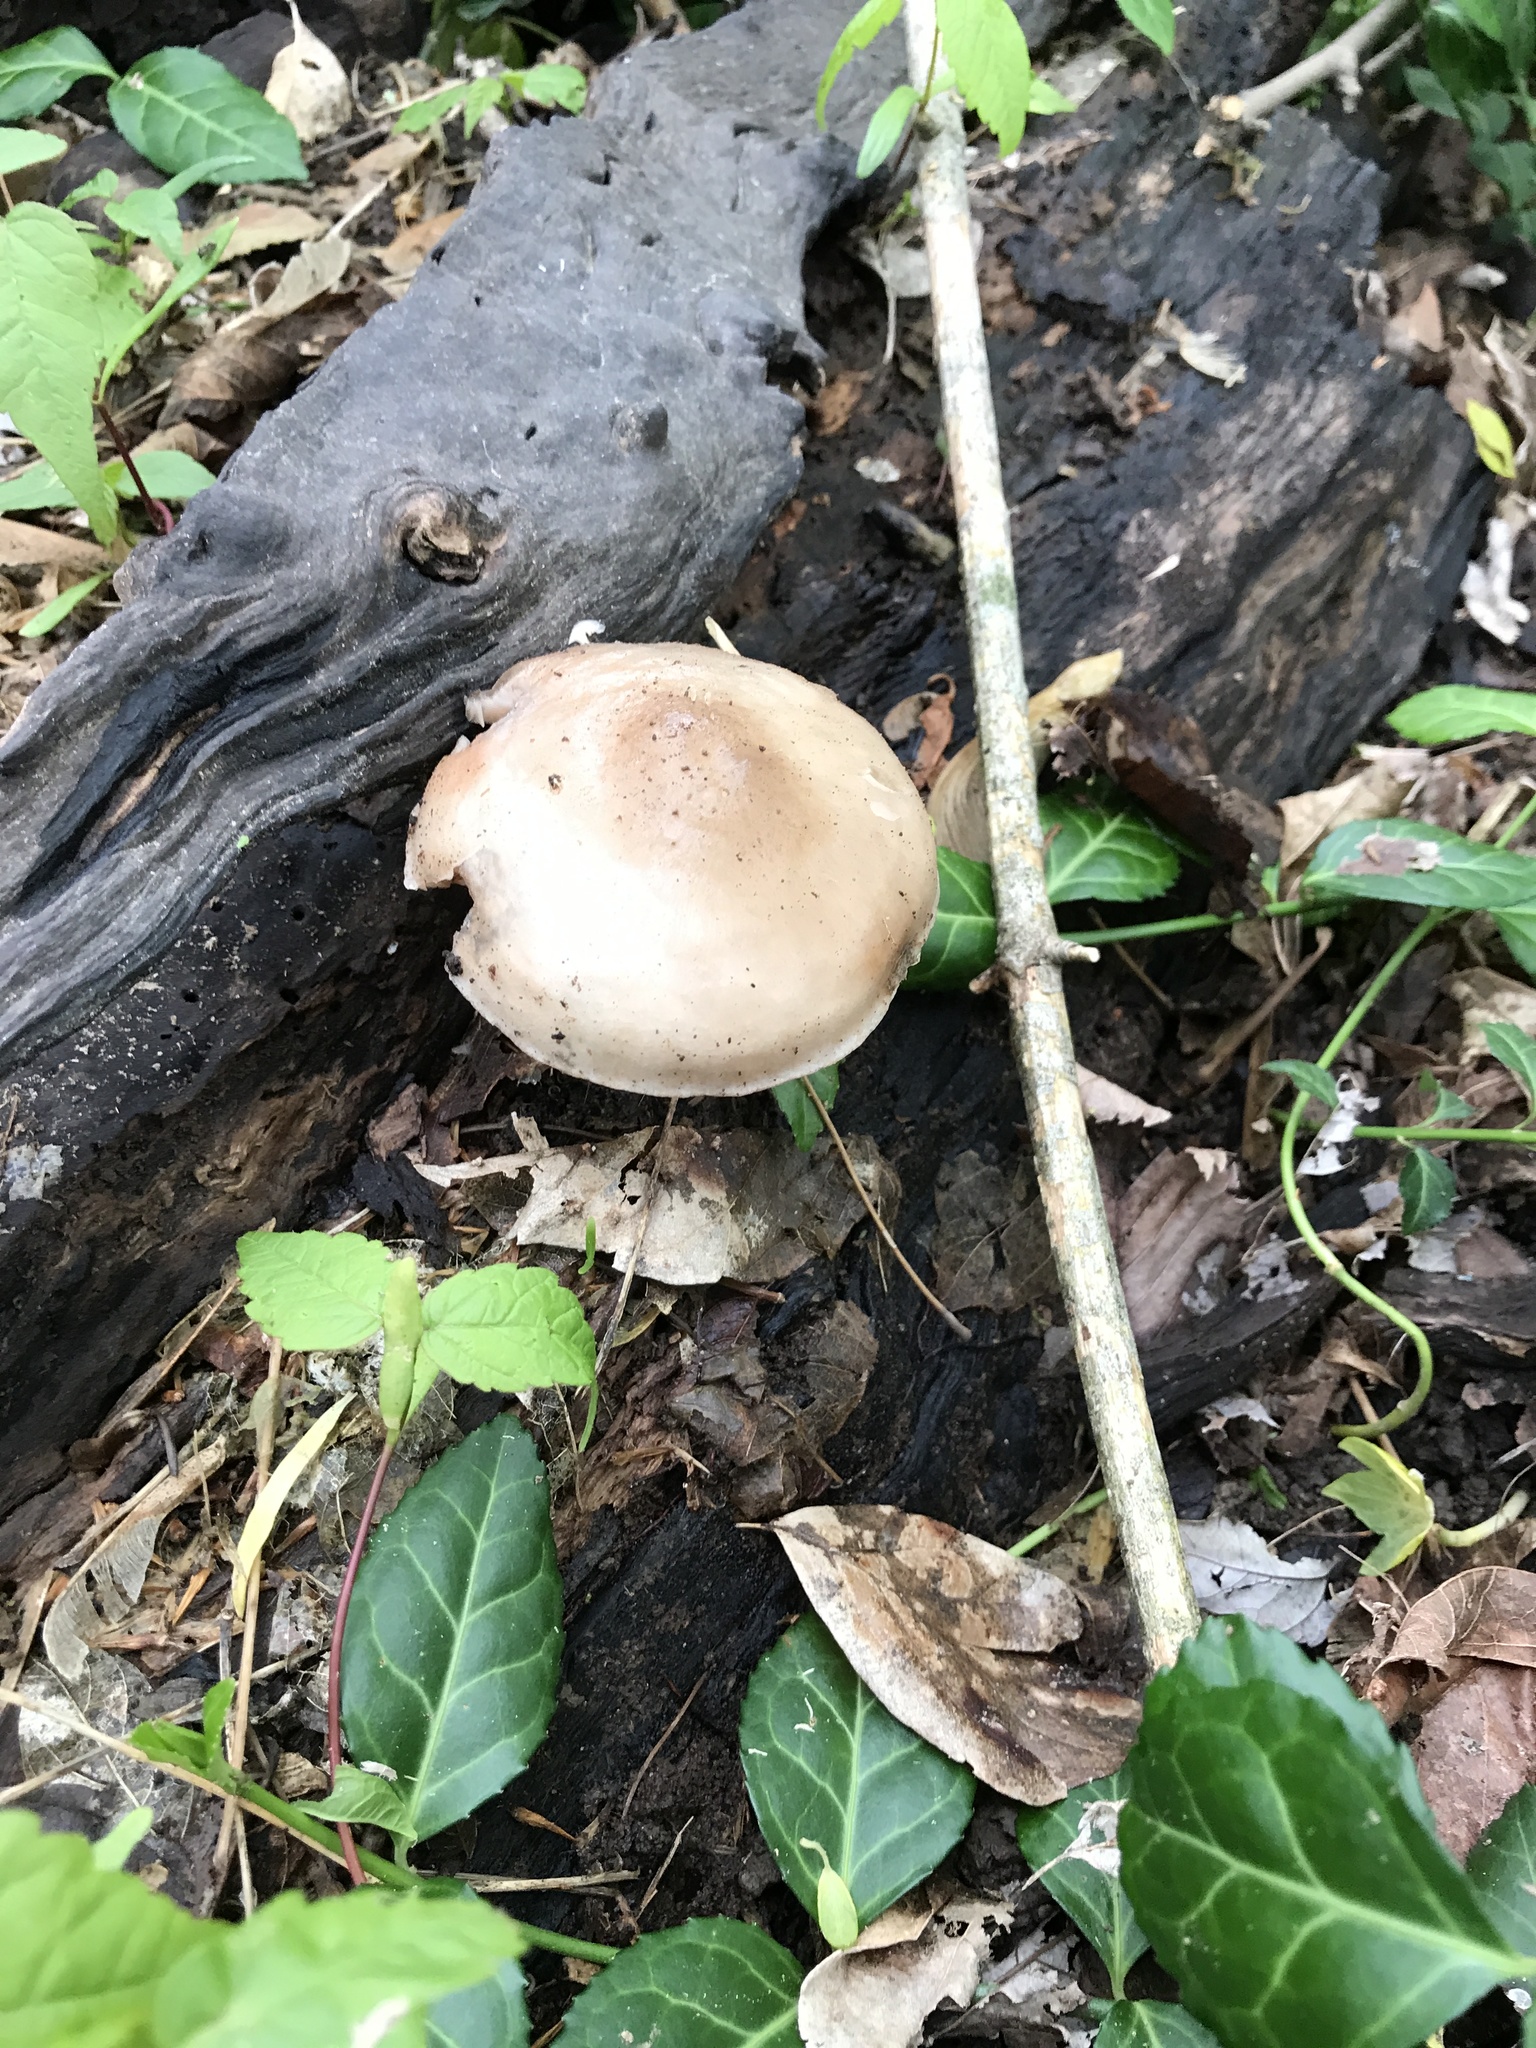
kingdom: Fungi
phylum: Basidiomycota
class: Agaricomycetes
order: Agaricales
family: Pluteaceae
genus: Pluteus
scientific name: Pluteus cervinus
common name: Deer shield
